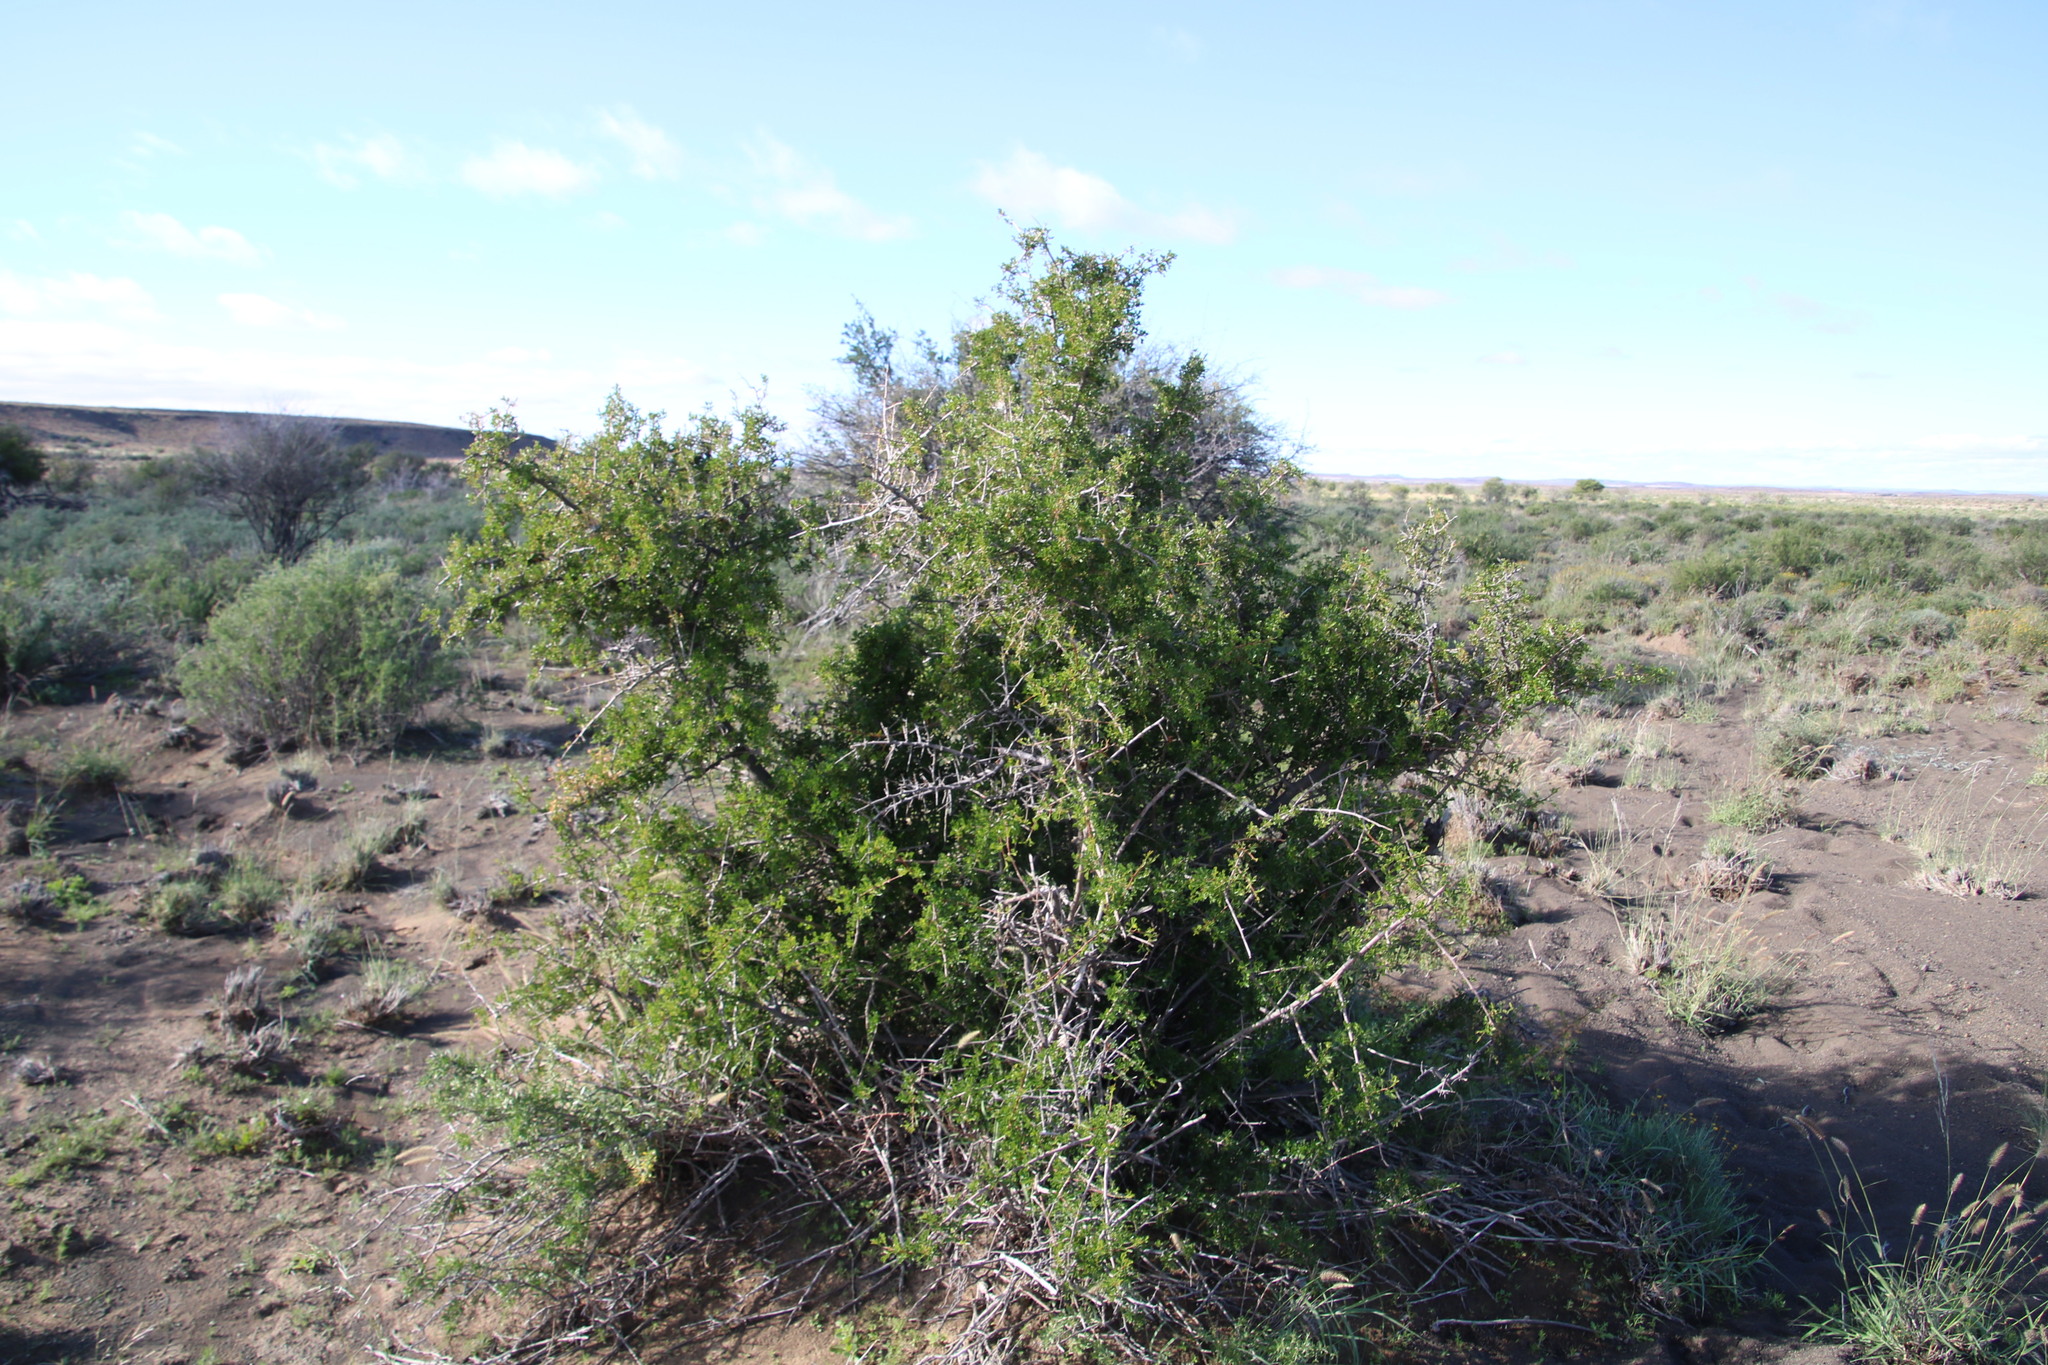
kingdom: Plantae
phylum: Tracheophyta
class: Magnoliopsida
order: Sapindales
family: Anacardiaceae
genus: Searsia
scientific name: Searsia burchellii
